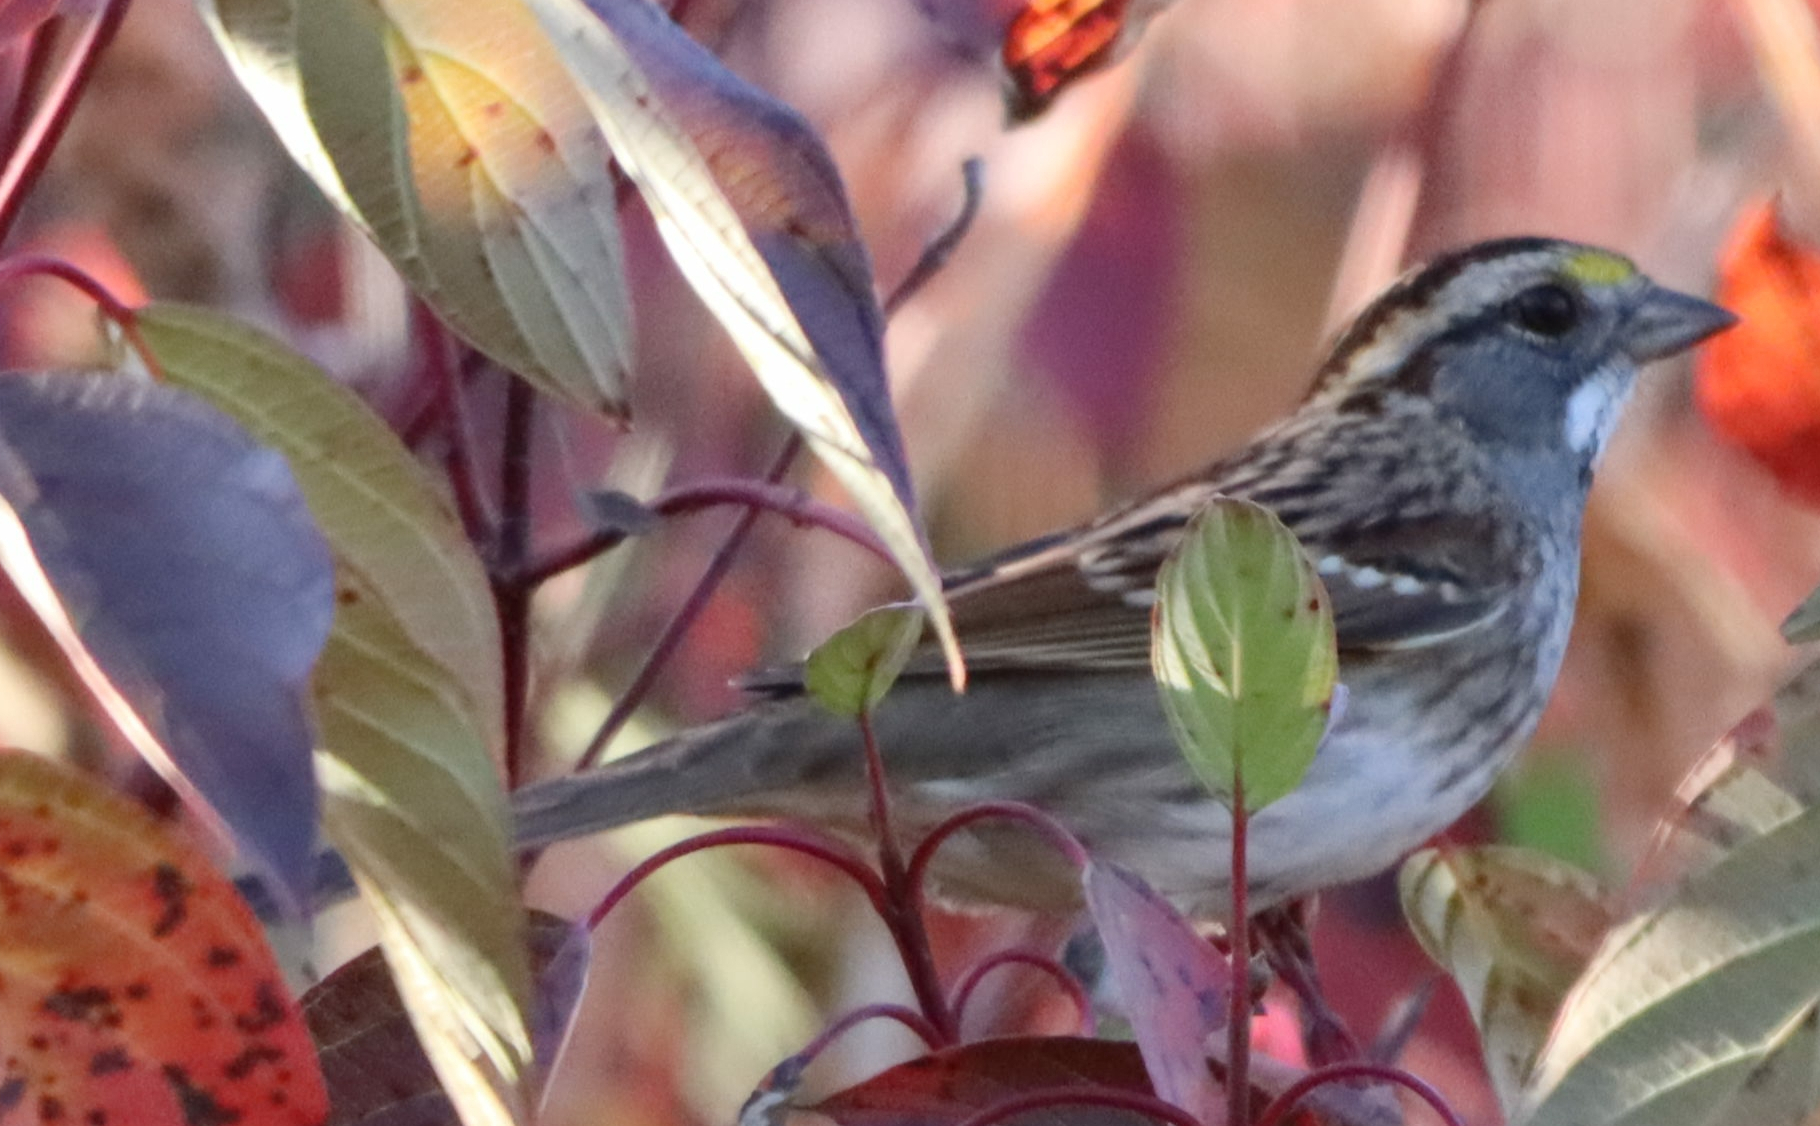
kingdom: Animalia
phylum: Chordata
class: Aves
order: Passeriformes
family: Passerellidae
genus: Zonotrichia
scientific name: Zonotrichia albicollis
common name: White-throated sparrow
